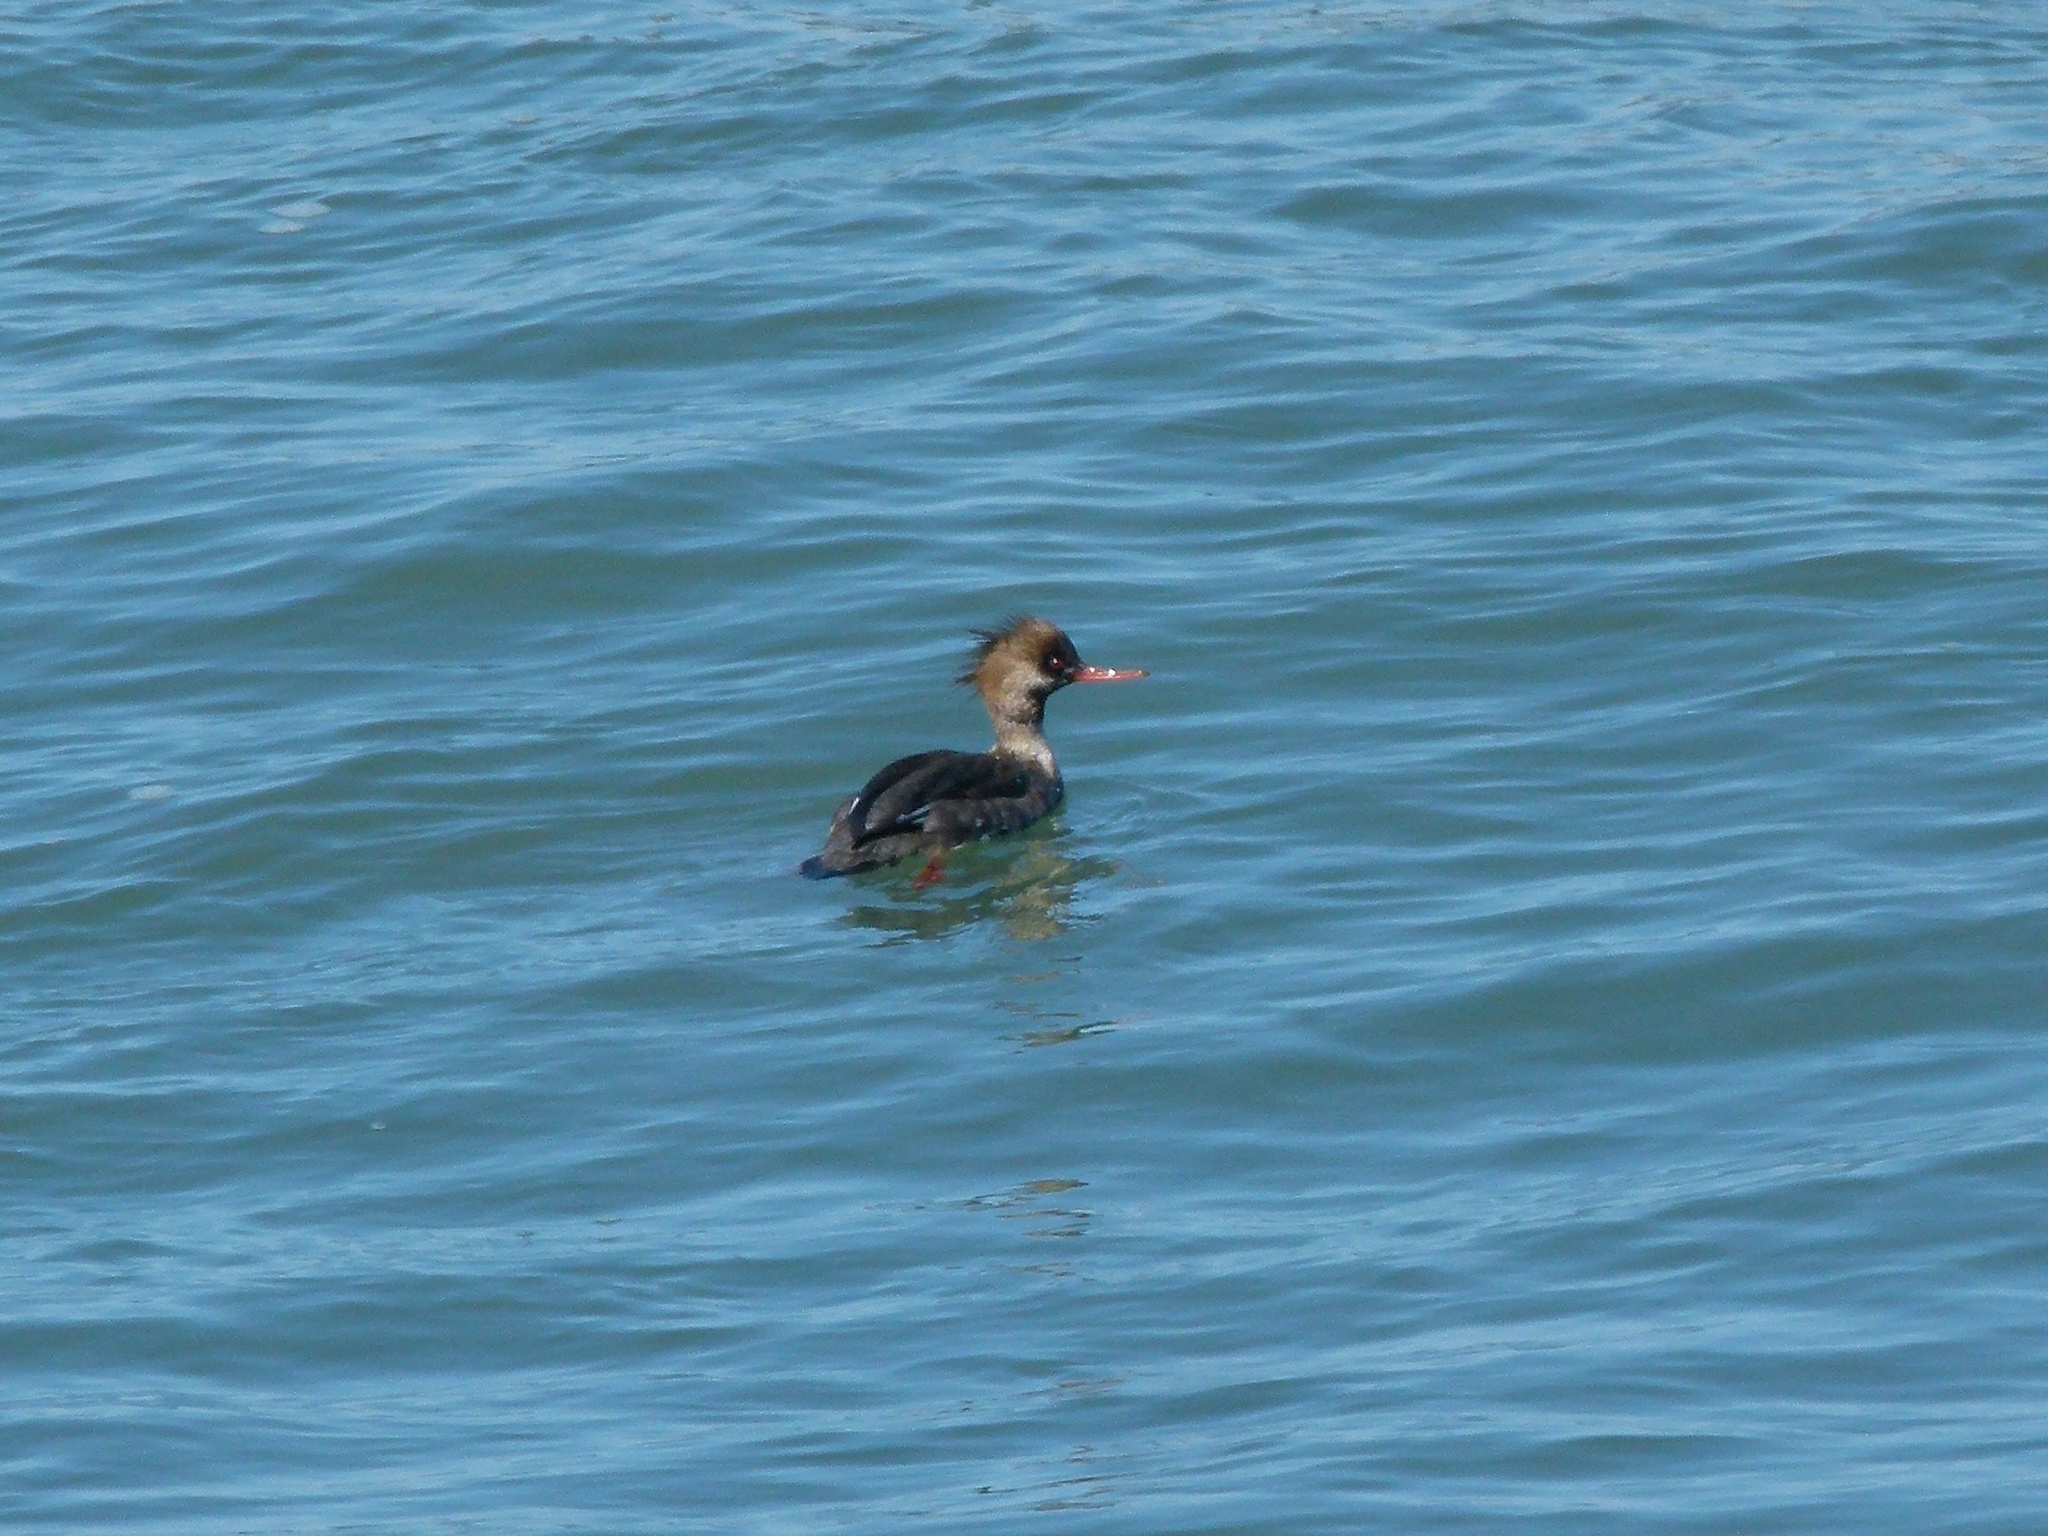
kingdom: Animalia
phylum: Chordata
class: Aves
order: Anseriformes
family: Anatidae
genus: Mergus
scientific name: Mergus serrator
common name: Red-breasted merganser
